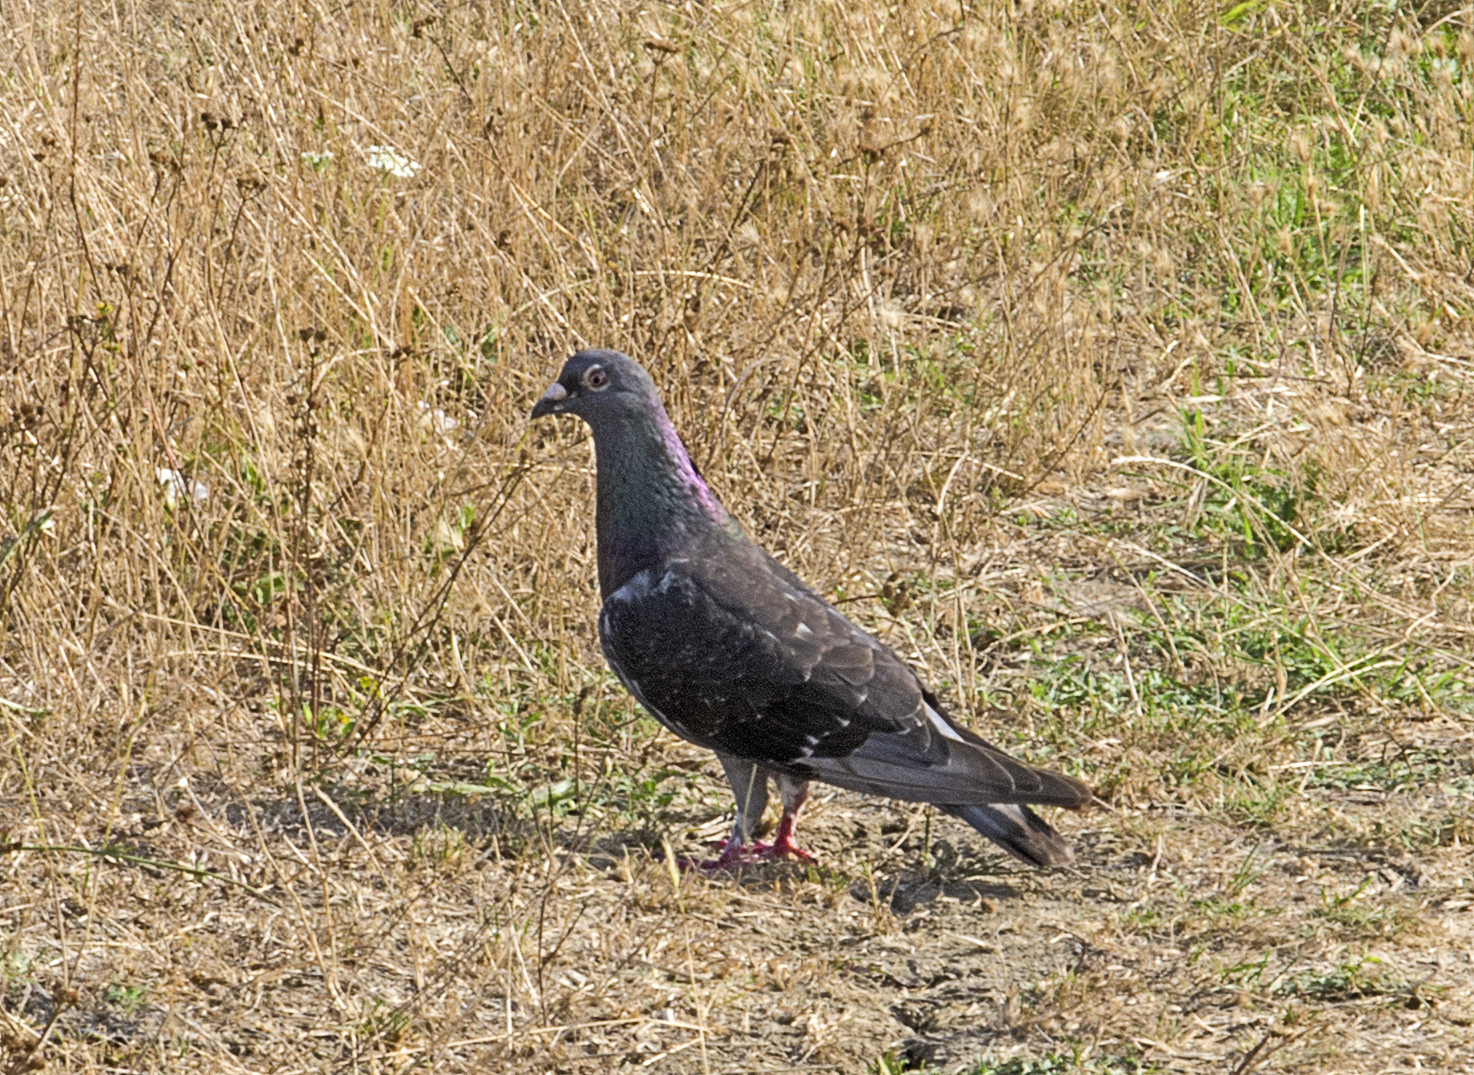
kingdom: Animalia
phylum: Chordata
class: Aves
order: Columbiformes
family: Columbidae
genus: Columba
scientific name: Columba livia
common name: Rock pigeon
